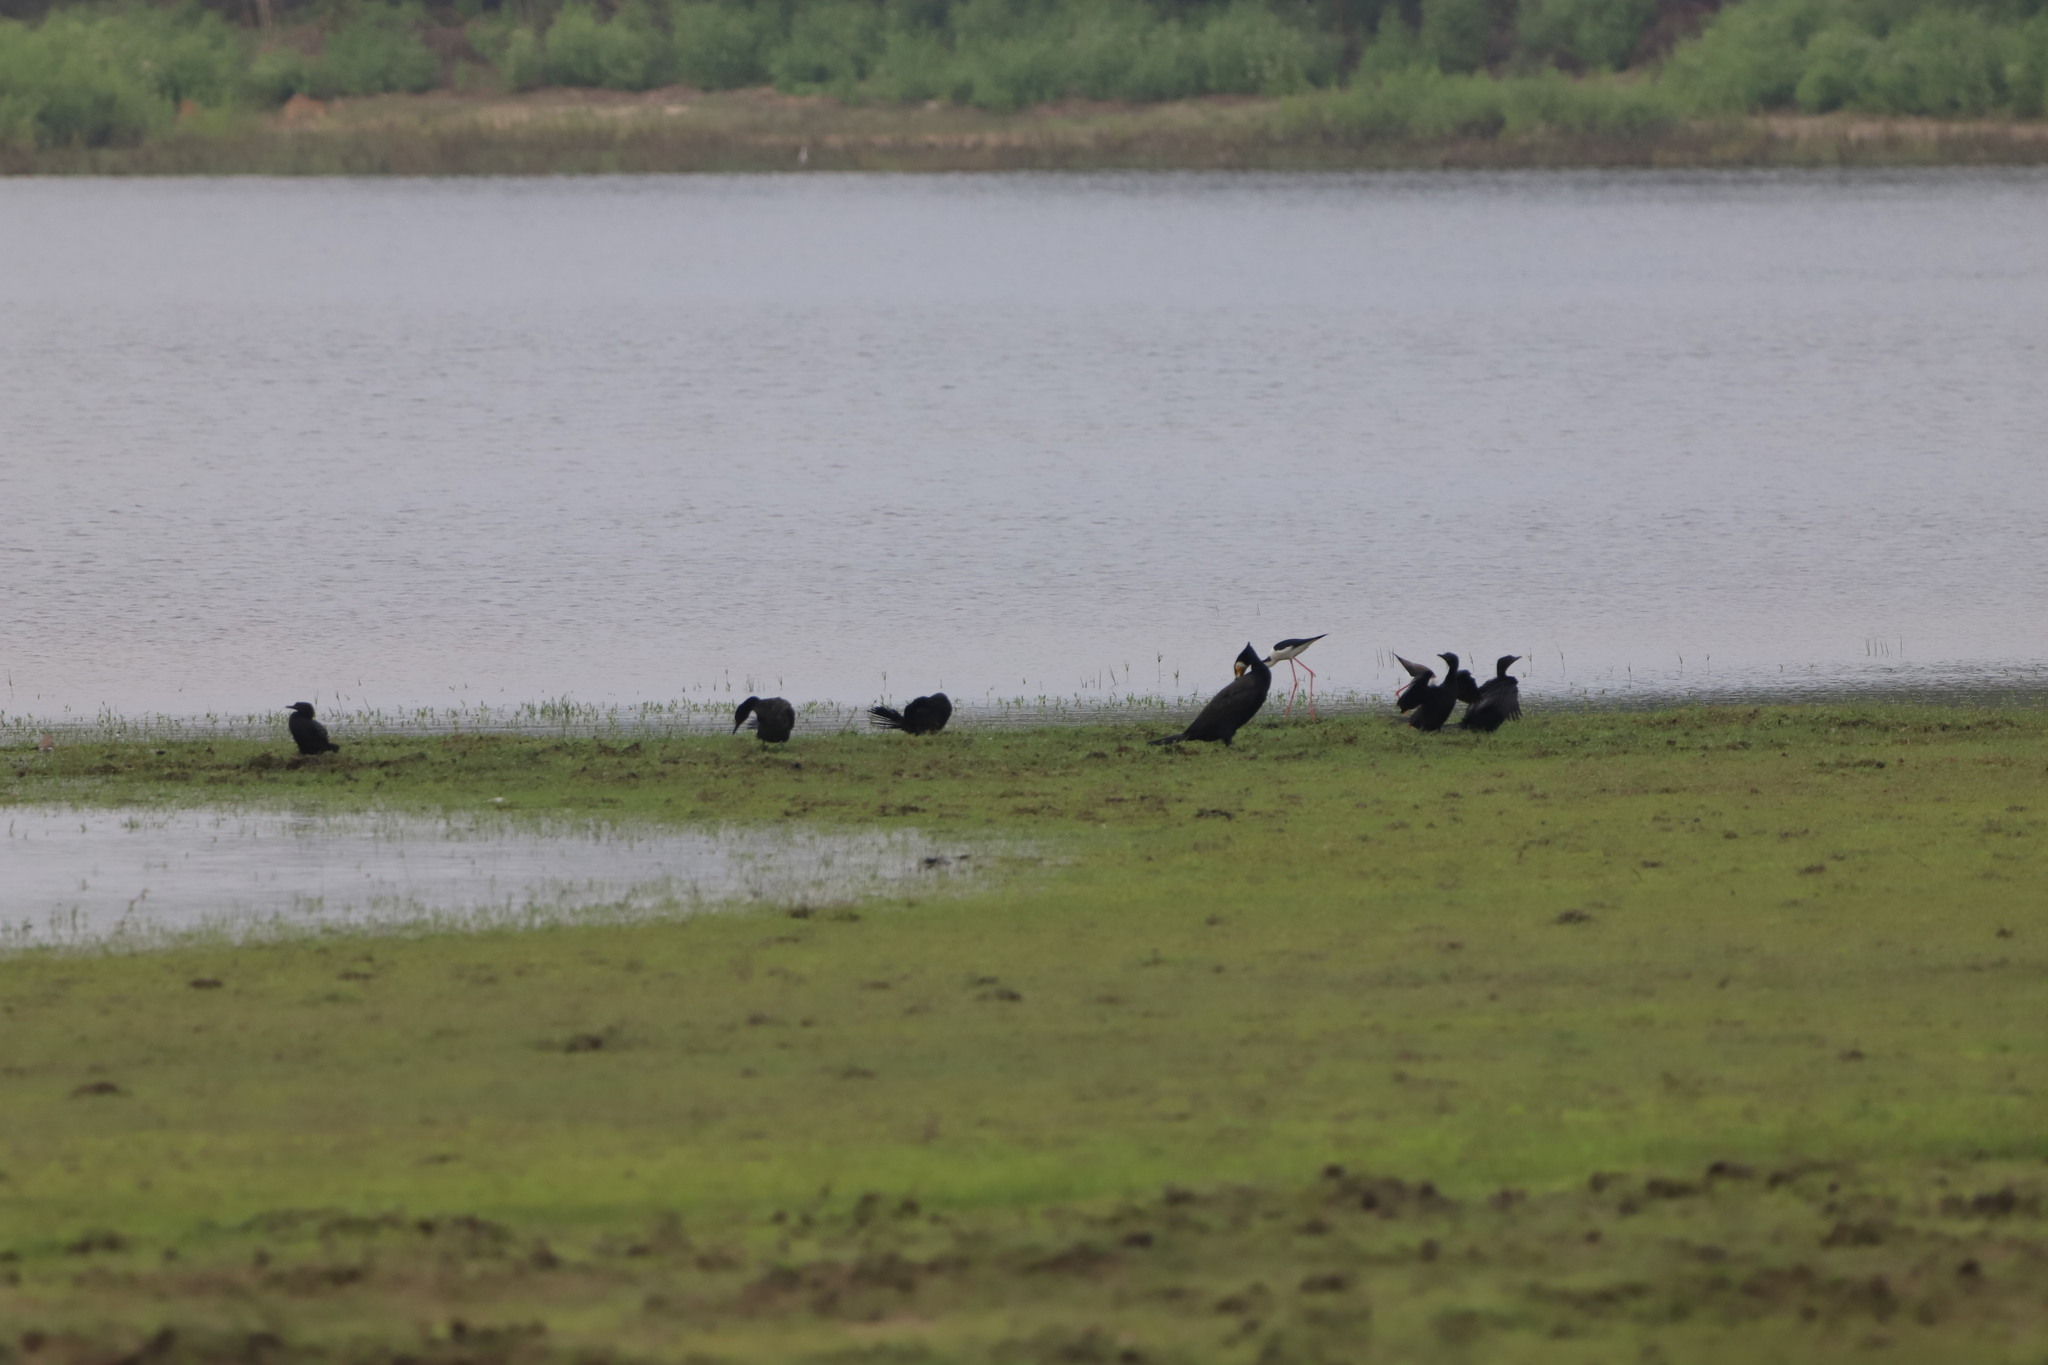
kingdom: Animalia
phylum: Chordata
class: Aves
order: Charadriiformes
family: Recurvirostridae
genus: Himantopus
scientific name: Himantopus himantopus
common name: Black-winged stilt
